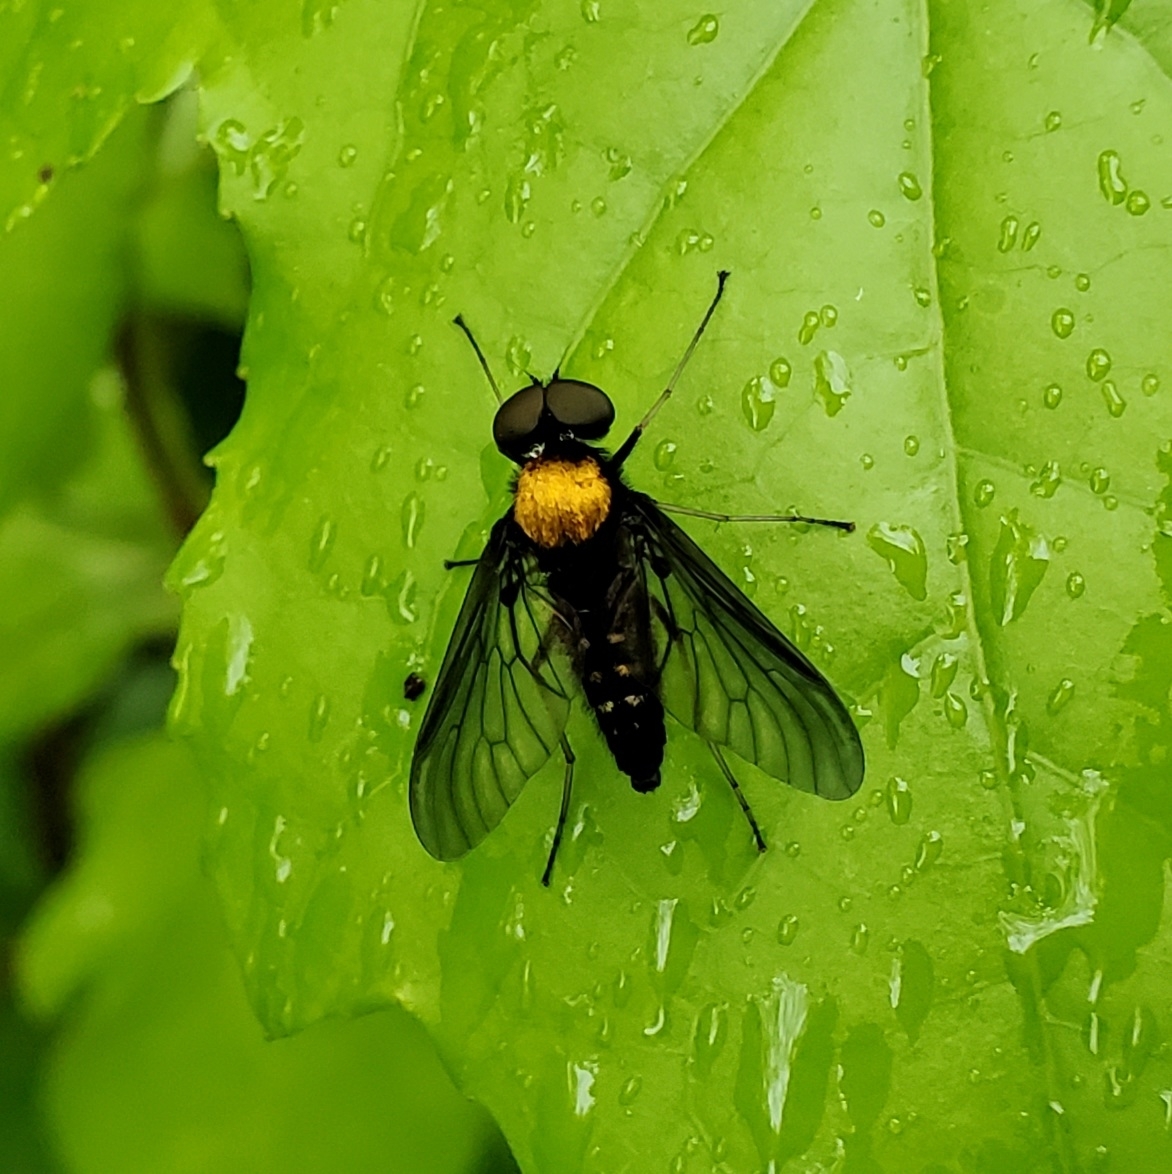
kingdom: Animalia
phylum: Arthropoda
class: Insecta
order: Diptera
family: Rhagionidae
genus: Chrysopilus
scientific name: Chrysopilus thoracicus
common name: Golden-backed snipe fly
